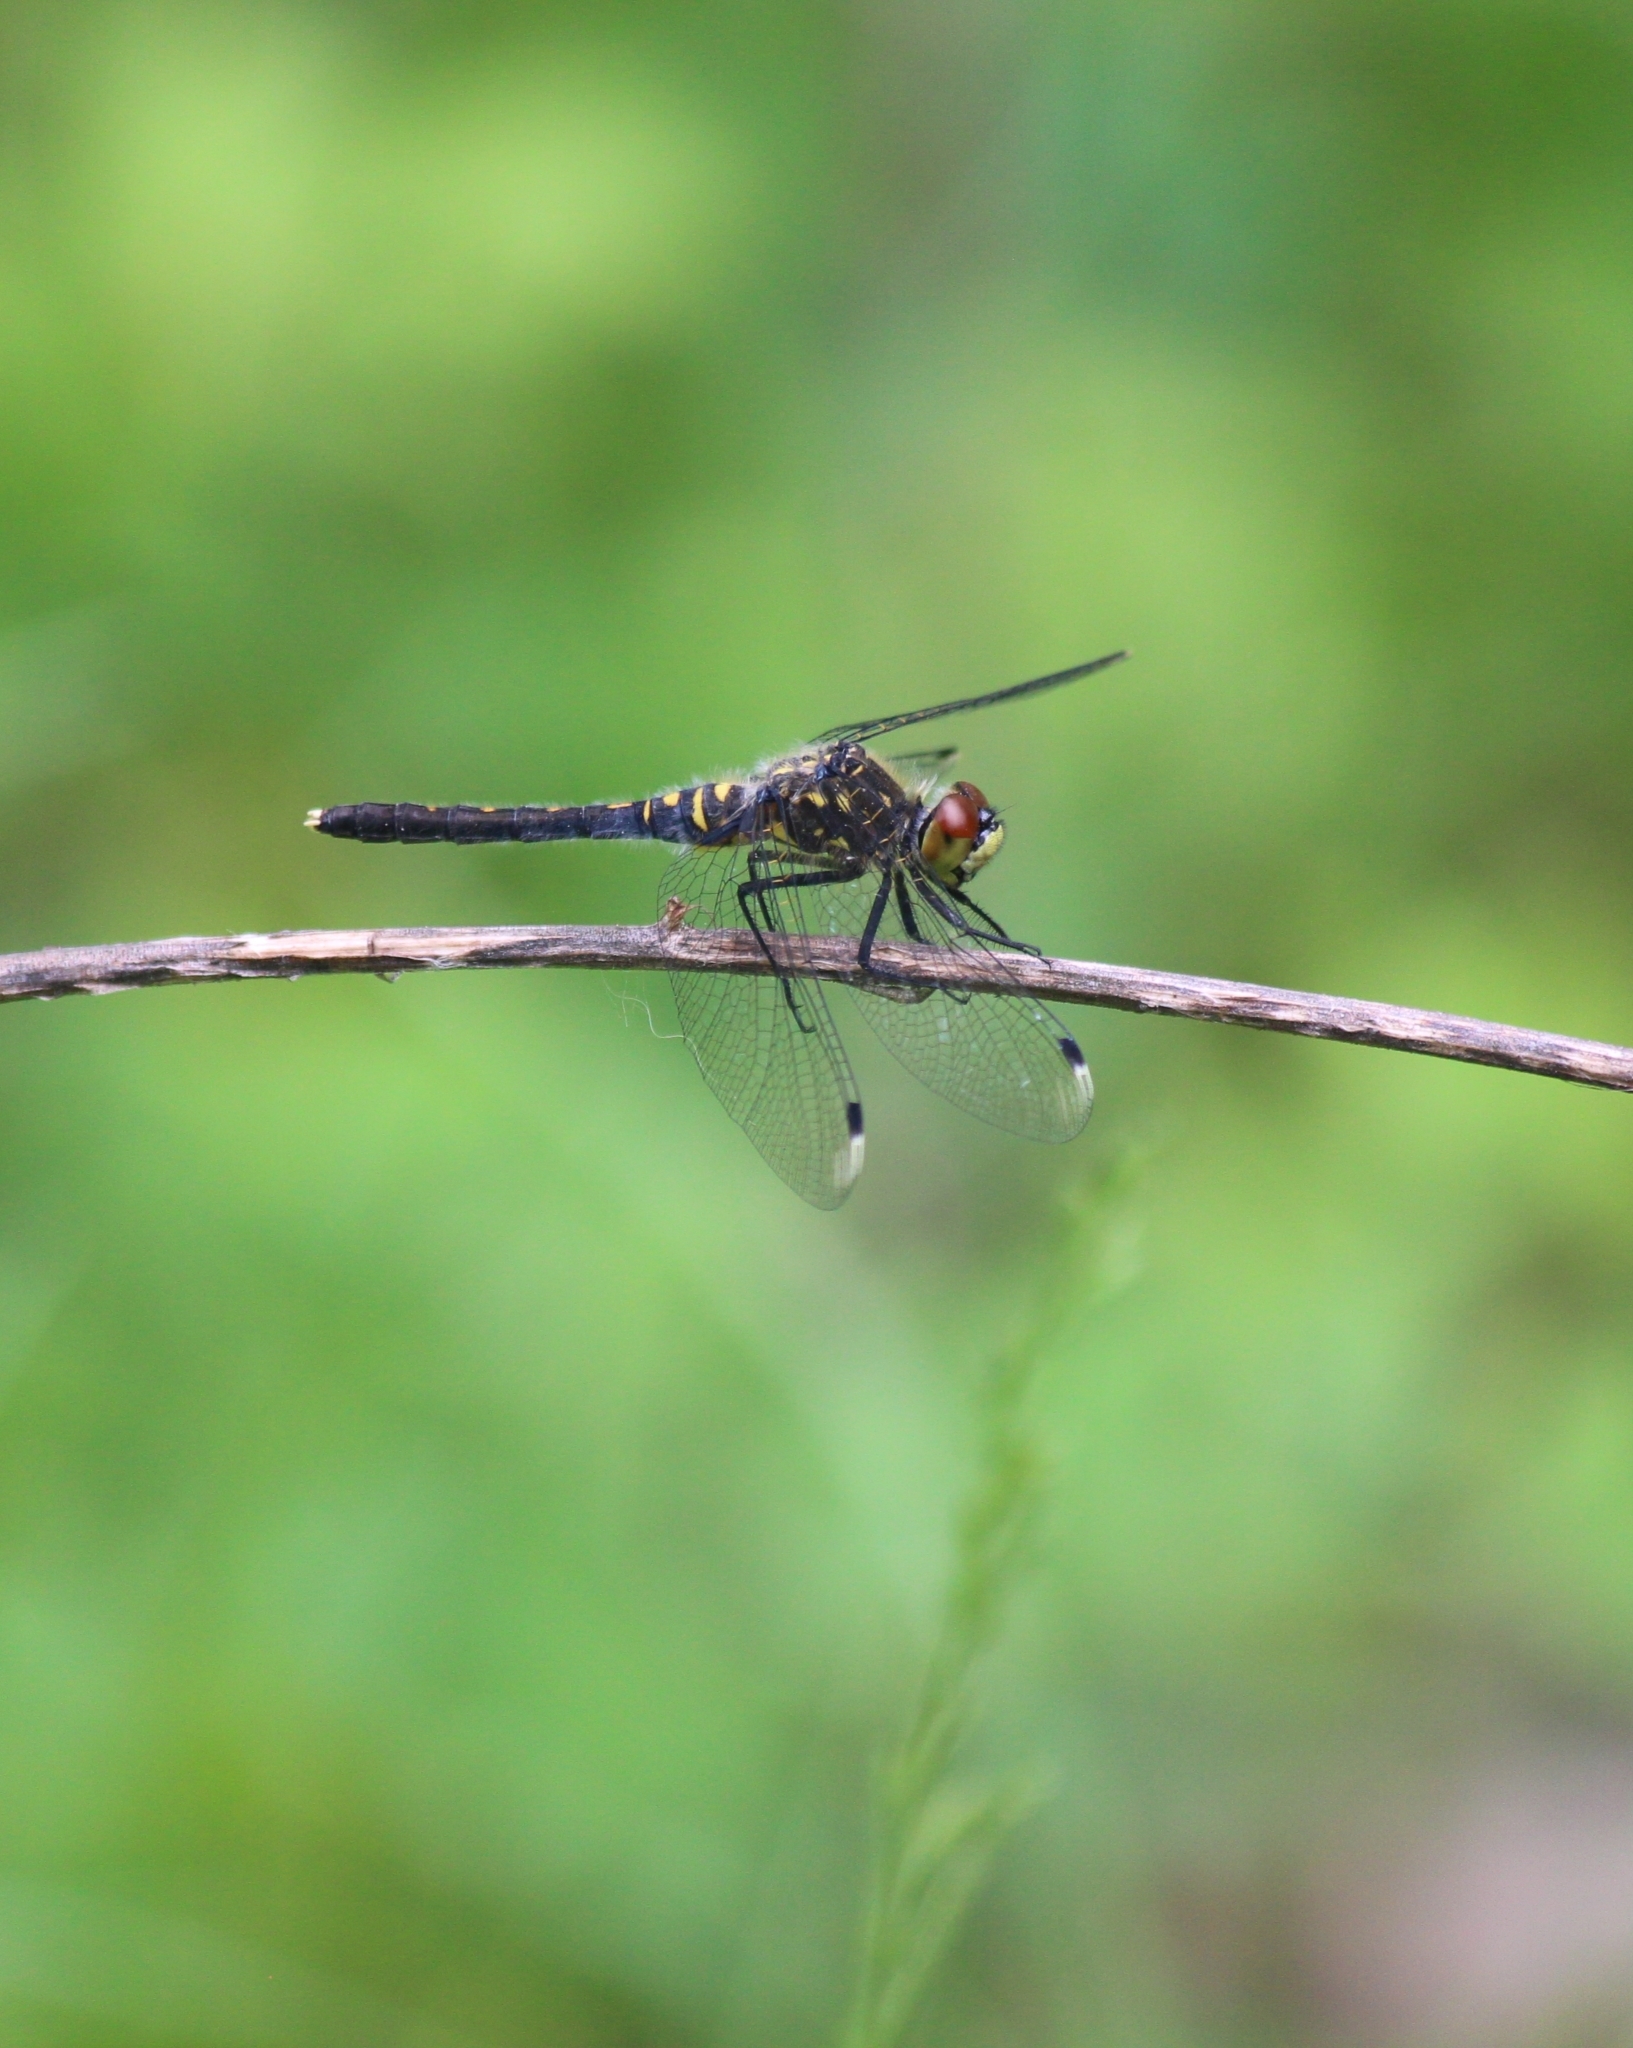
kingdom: Animalia
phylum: Arthropoda
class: Insecta
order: Odonata
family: Libellulidae
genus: Leucorrhinia
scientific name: Leucorrhinia albifrons
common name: Dark whiteface
